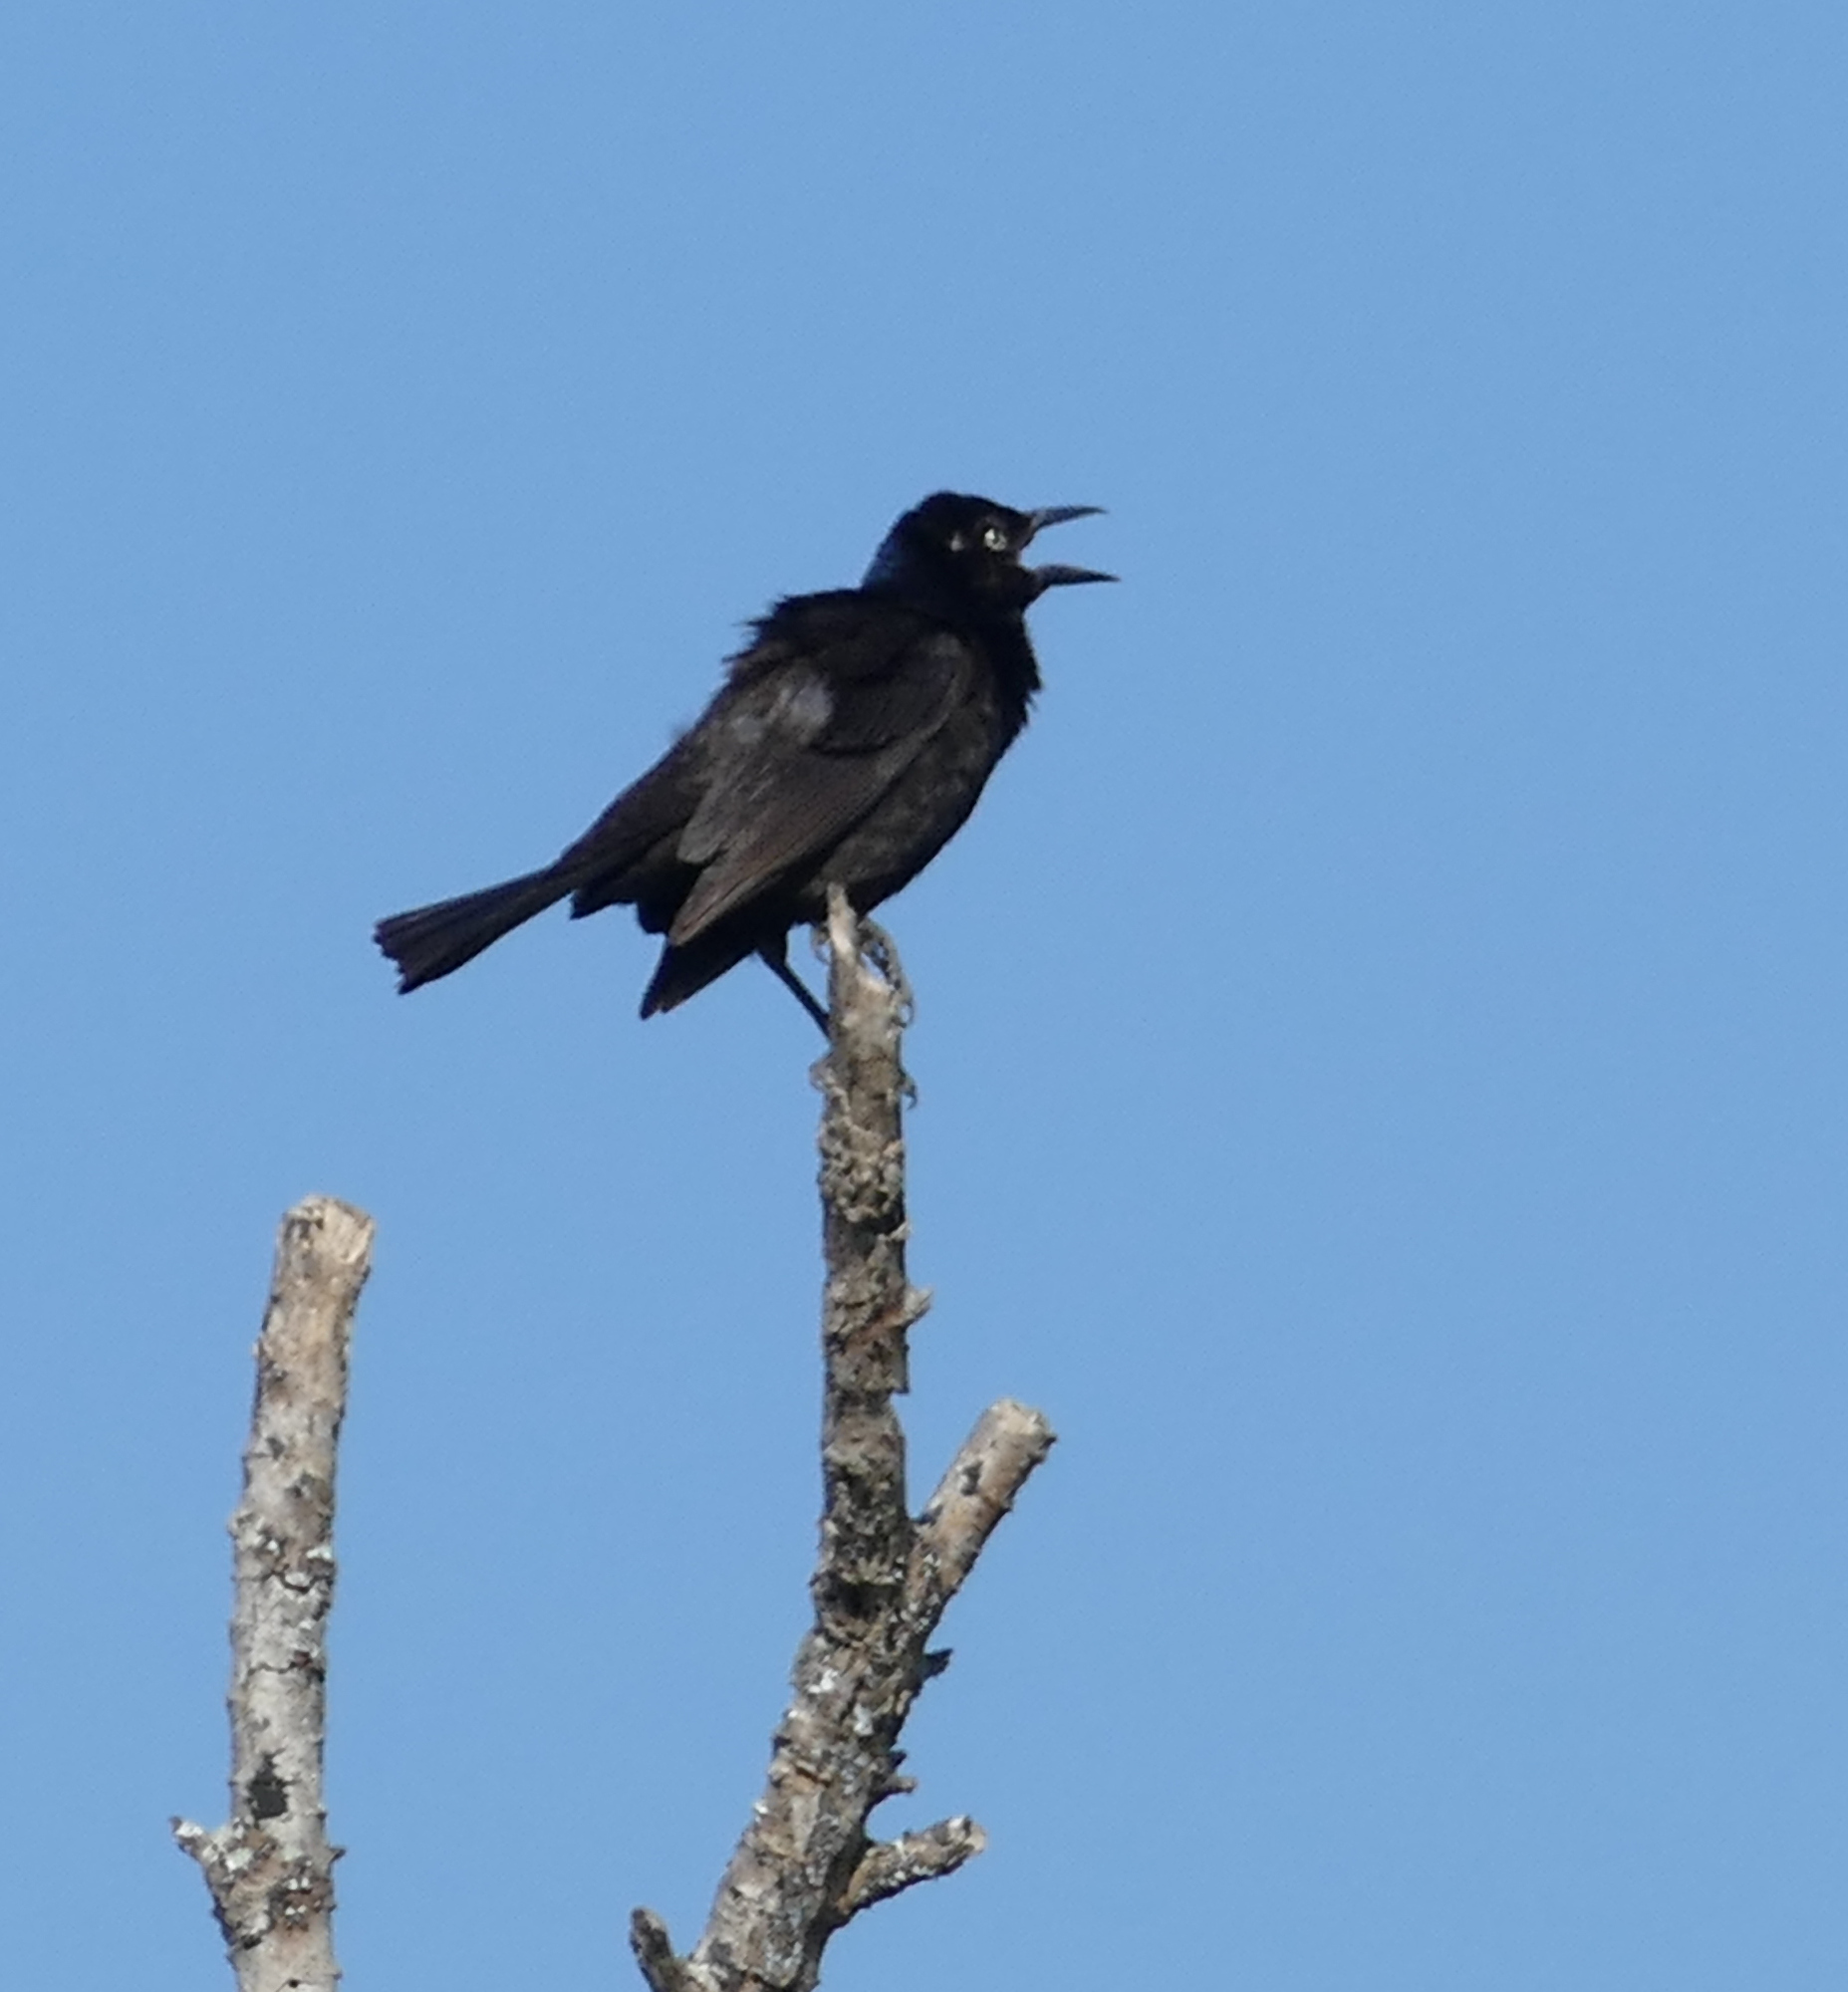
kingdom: Animalia
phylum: Chordata
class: Aves
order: Passeriformes
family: Icteridae
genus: Quiscalus
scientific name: Quiscalus quiscula
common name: Common grackle
